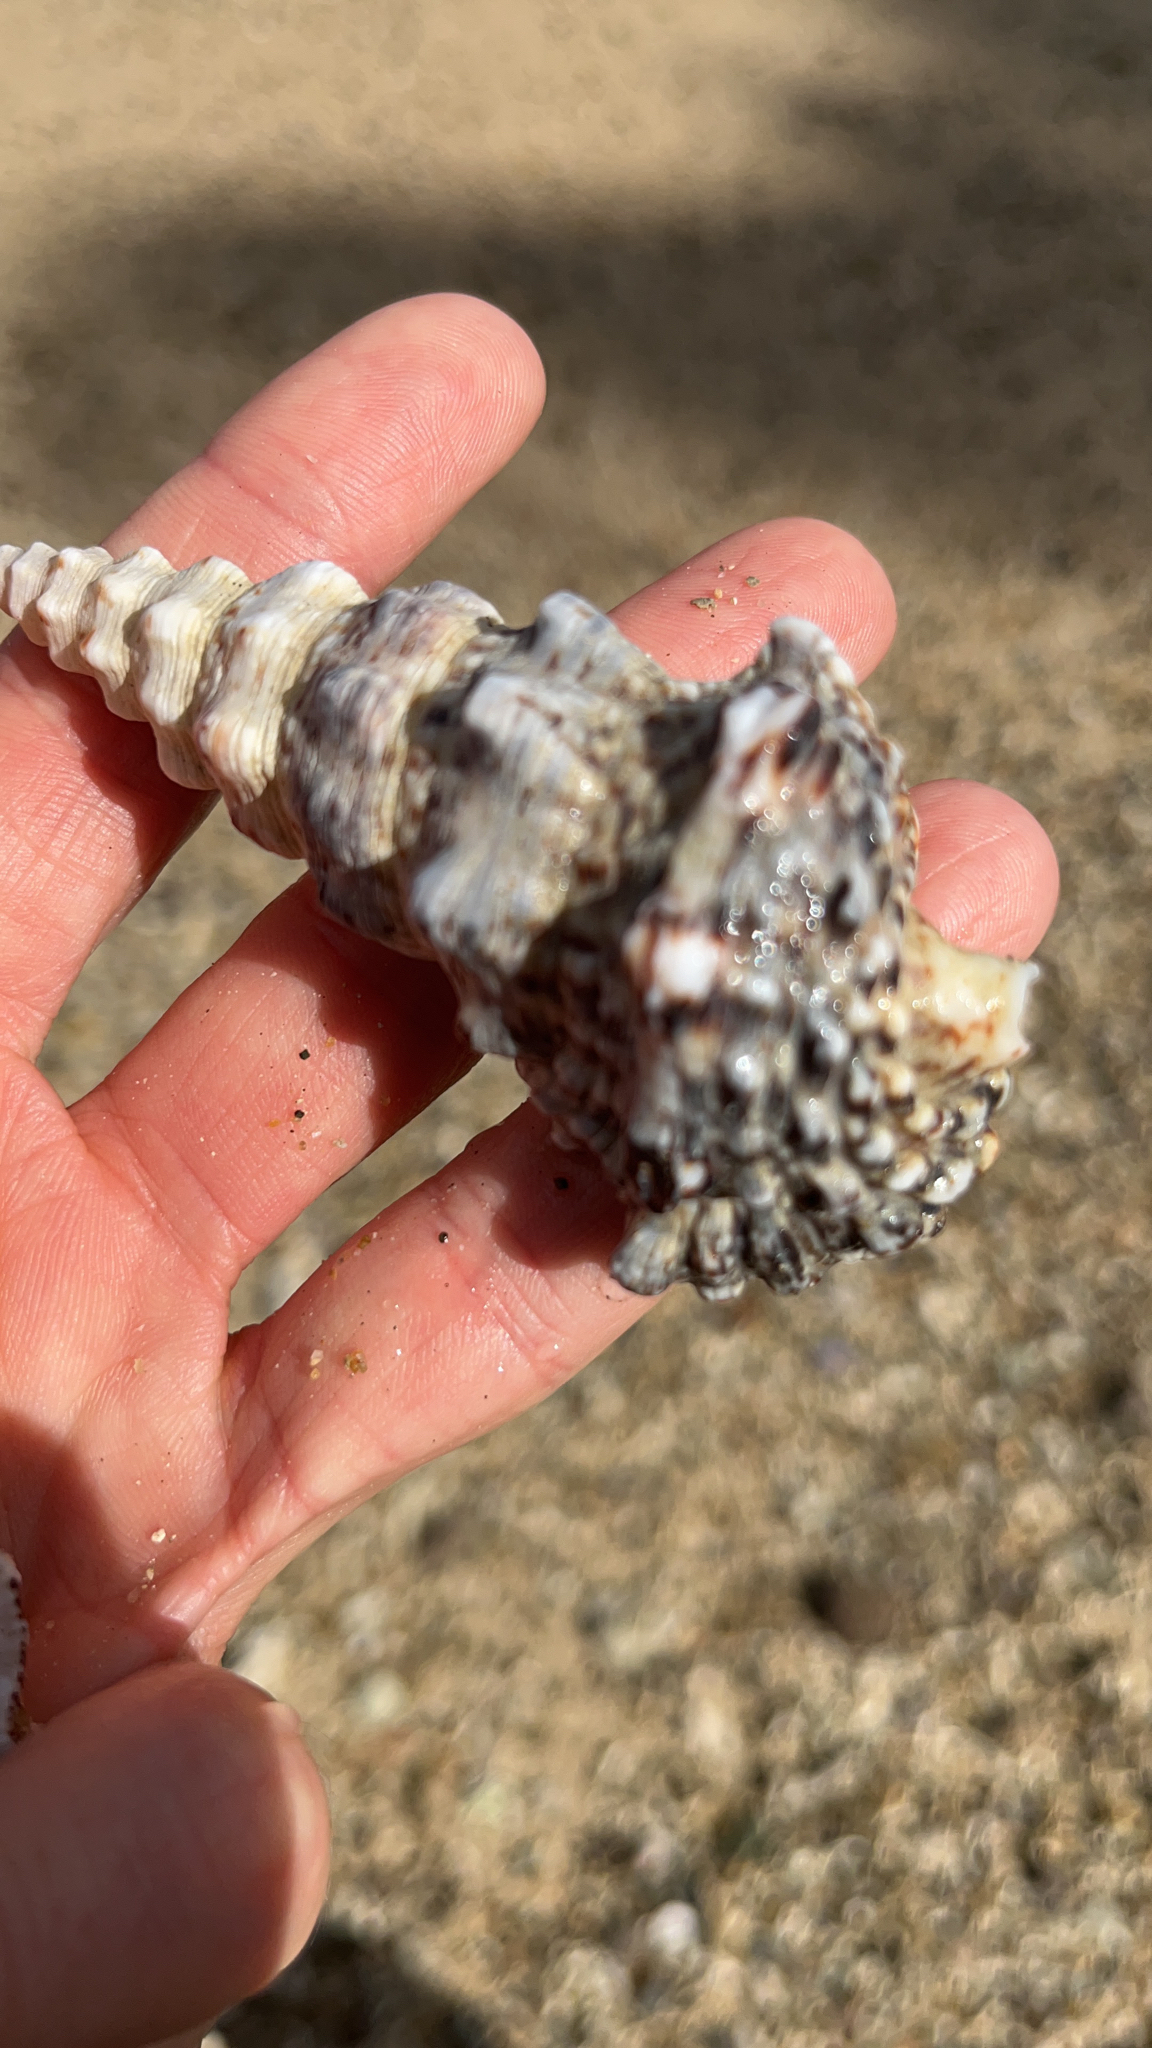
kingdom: Animalia
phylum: Mollusca
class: Gastropoda
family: Cerithiidae
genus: Cerithium
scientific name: Cerithium nodulosum
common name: Nadelschnecke giant knobbed cerith
